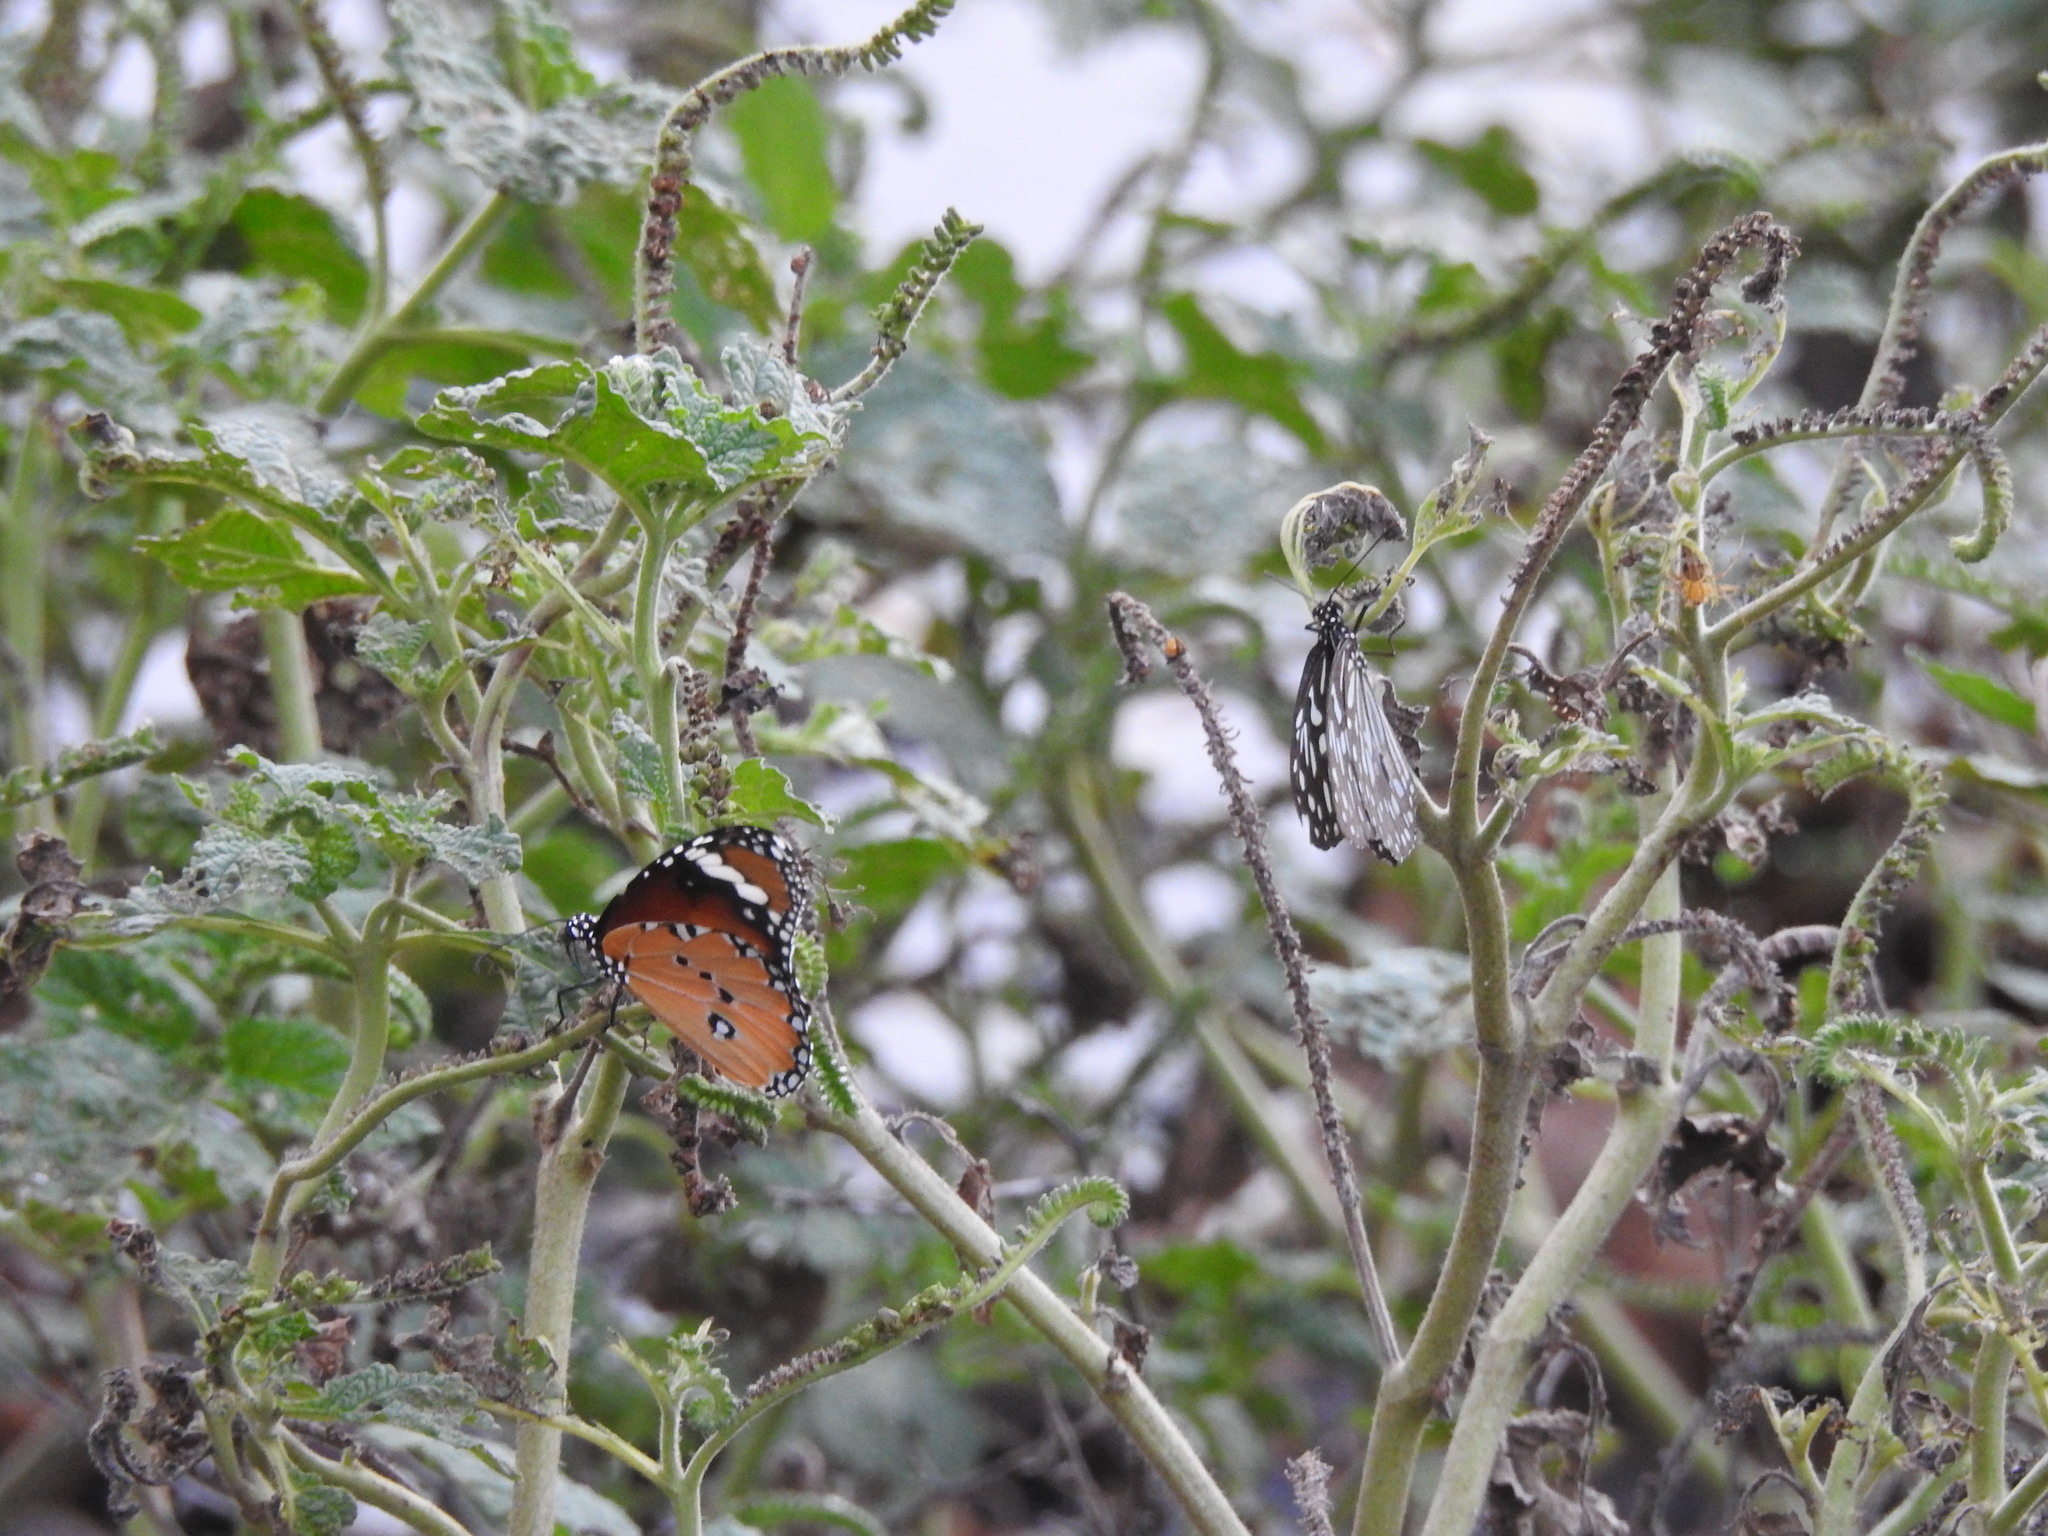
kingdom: Animalia
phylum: Arthropoda
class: Insecta
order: Lepidoptera
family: Nymphalidae
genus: Danaus
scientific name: Danaus chrysippus
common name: Plain tiger
